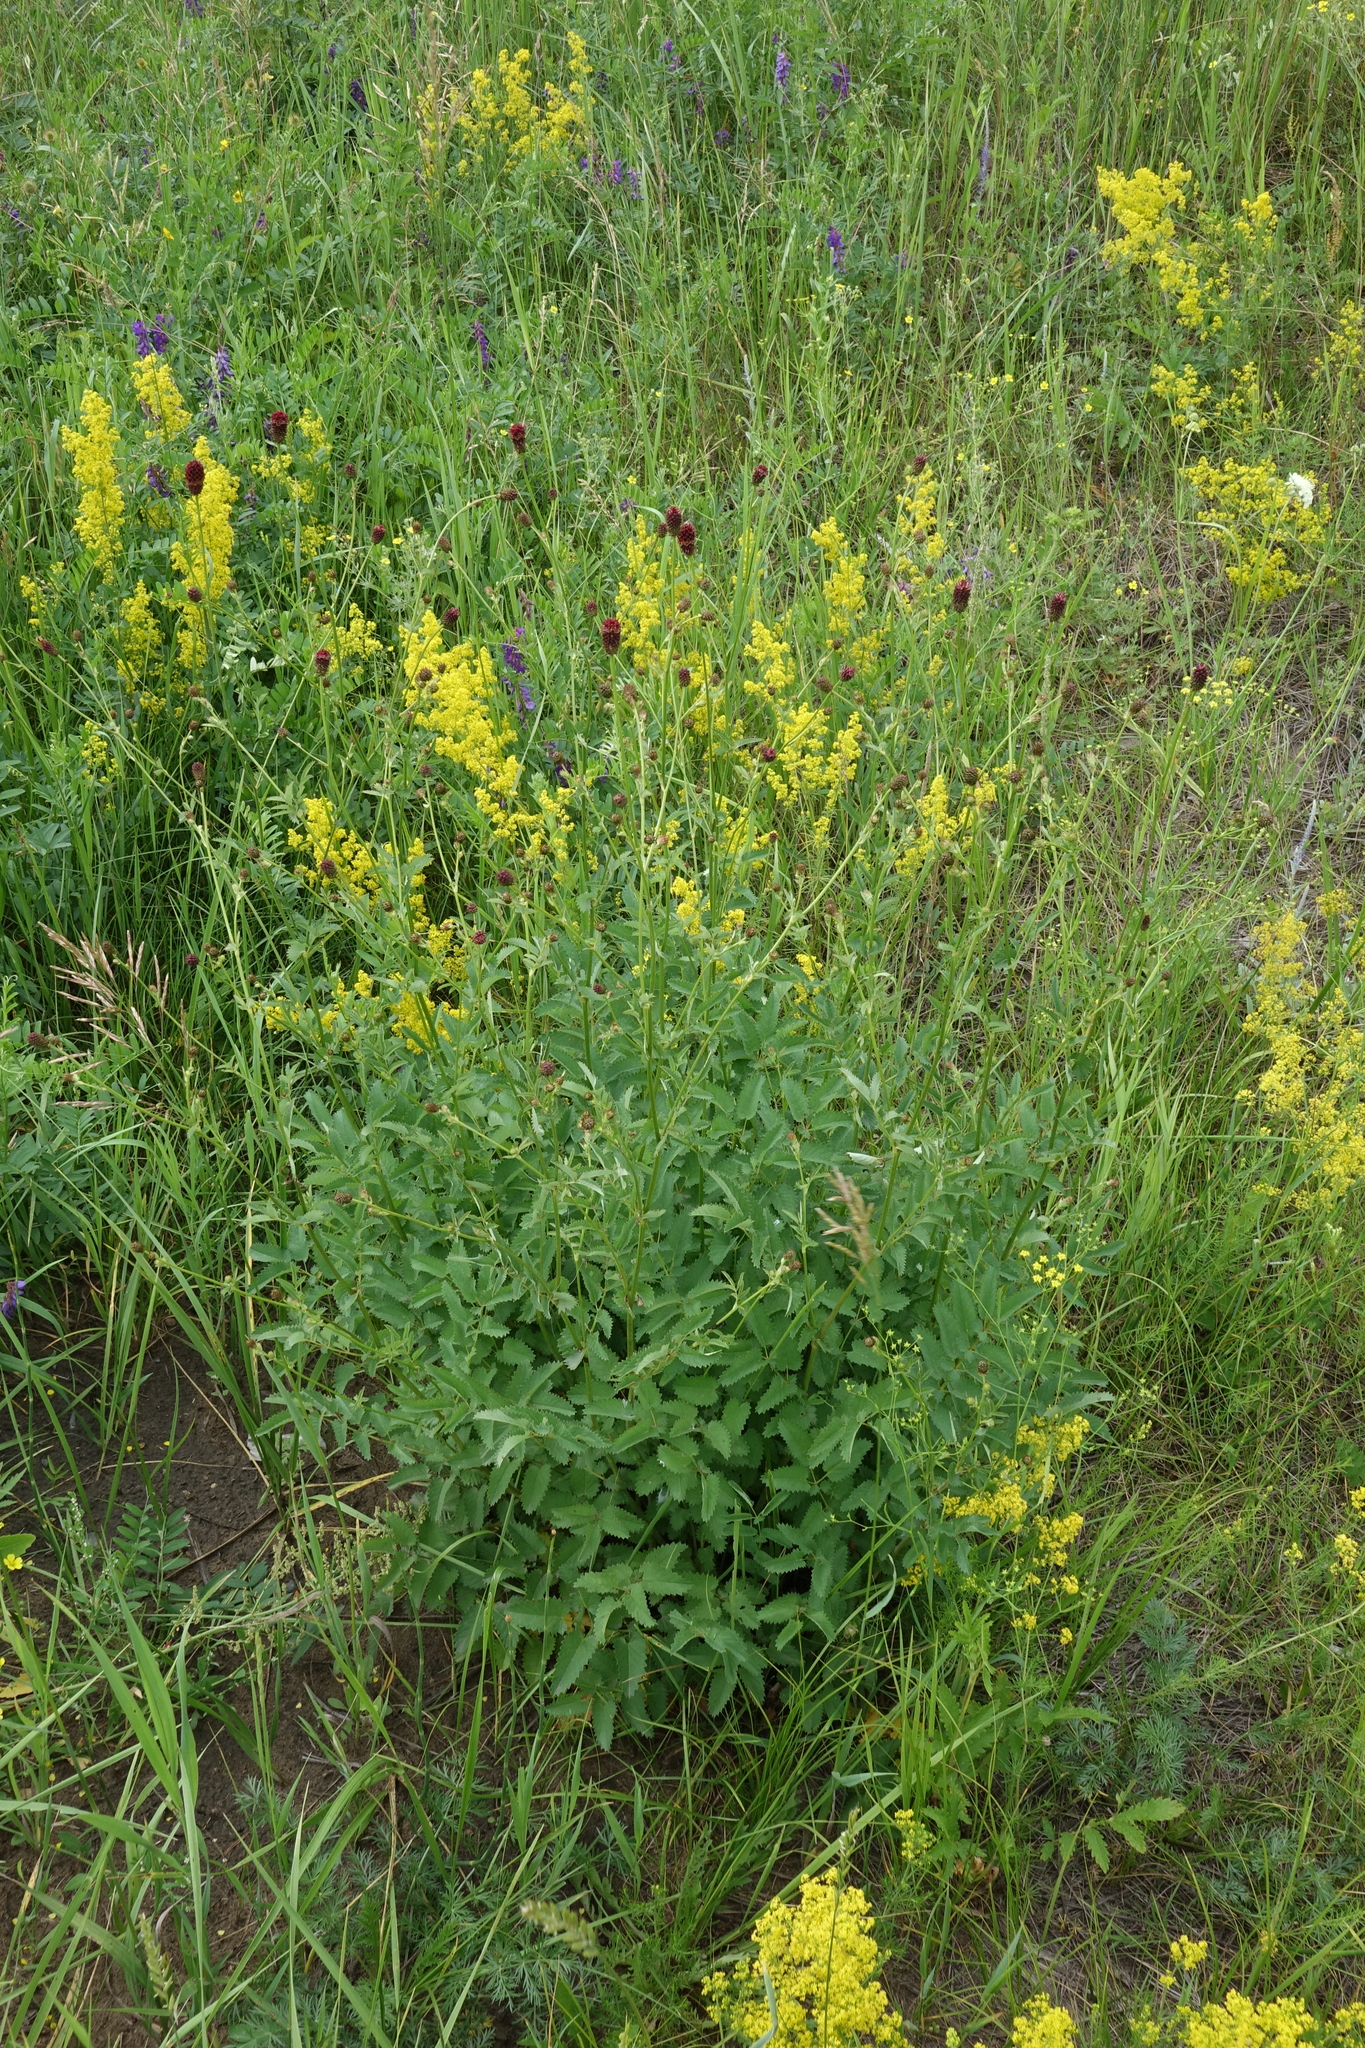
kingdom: Plantae
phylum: Tracheophyta
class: Magnoliopsida
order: Rosales
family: Rosaceae
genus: Sanguisorba
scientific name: Sanguisorba officinalis
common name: Great burnet
